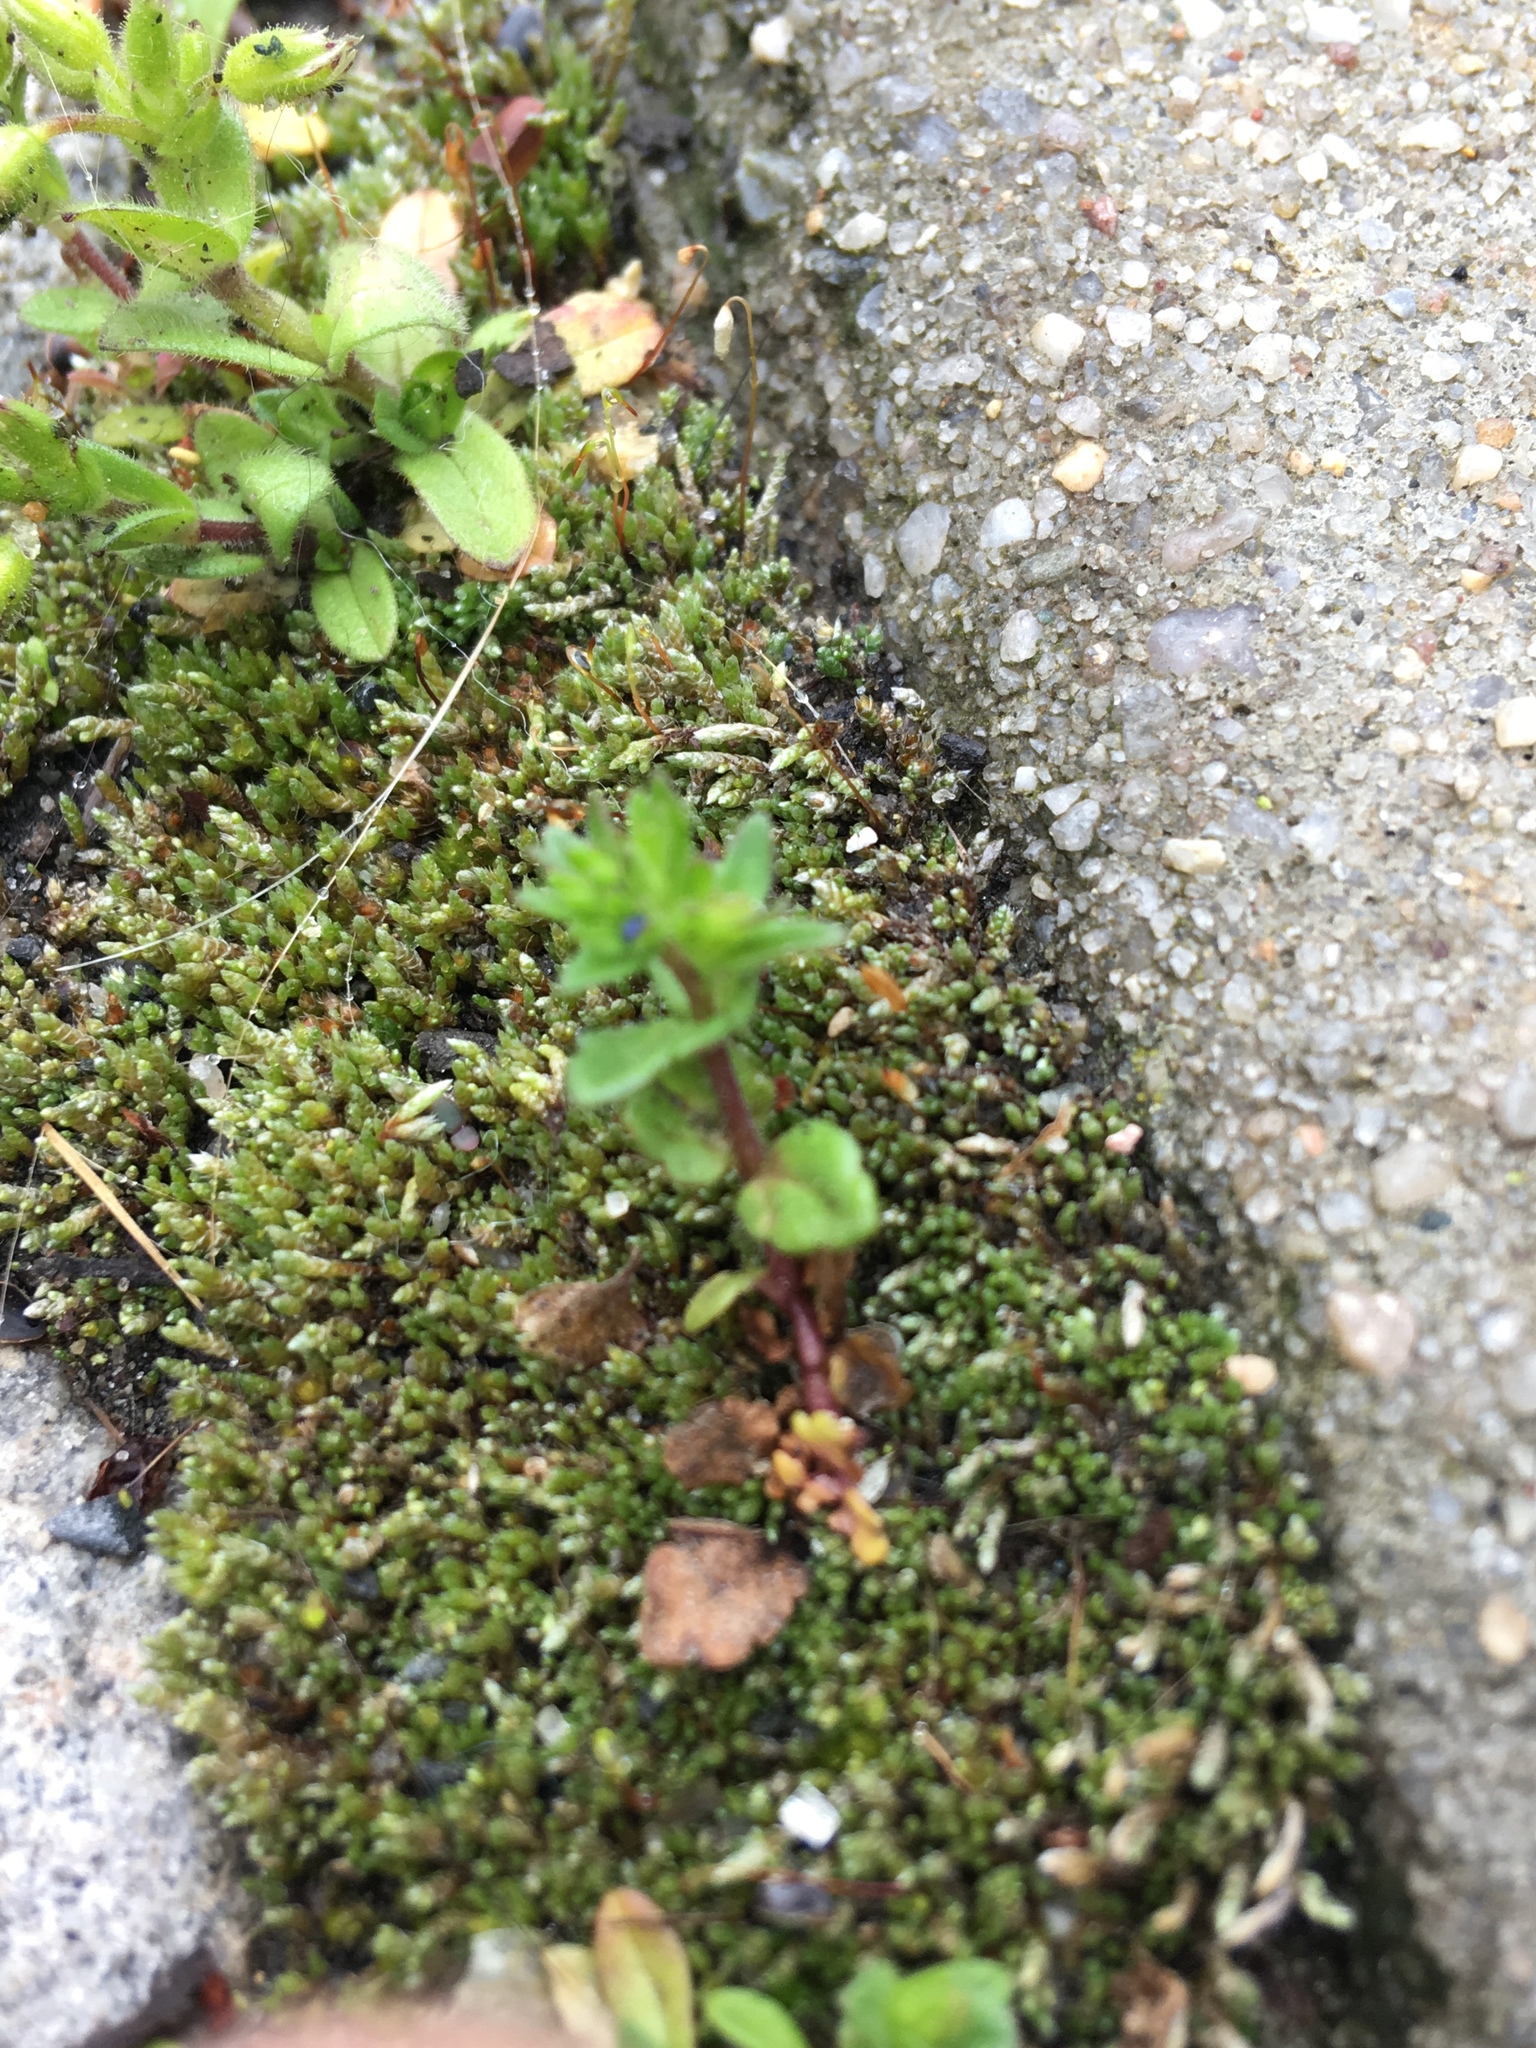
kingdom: Plantae
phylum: Tracheophyta
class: Magnoliopsida
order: Lamiales
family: Plantaginaceae
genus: Veronica
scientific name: Veronica arvensis
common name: Corn speedwell
